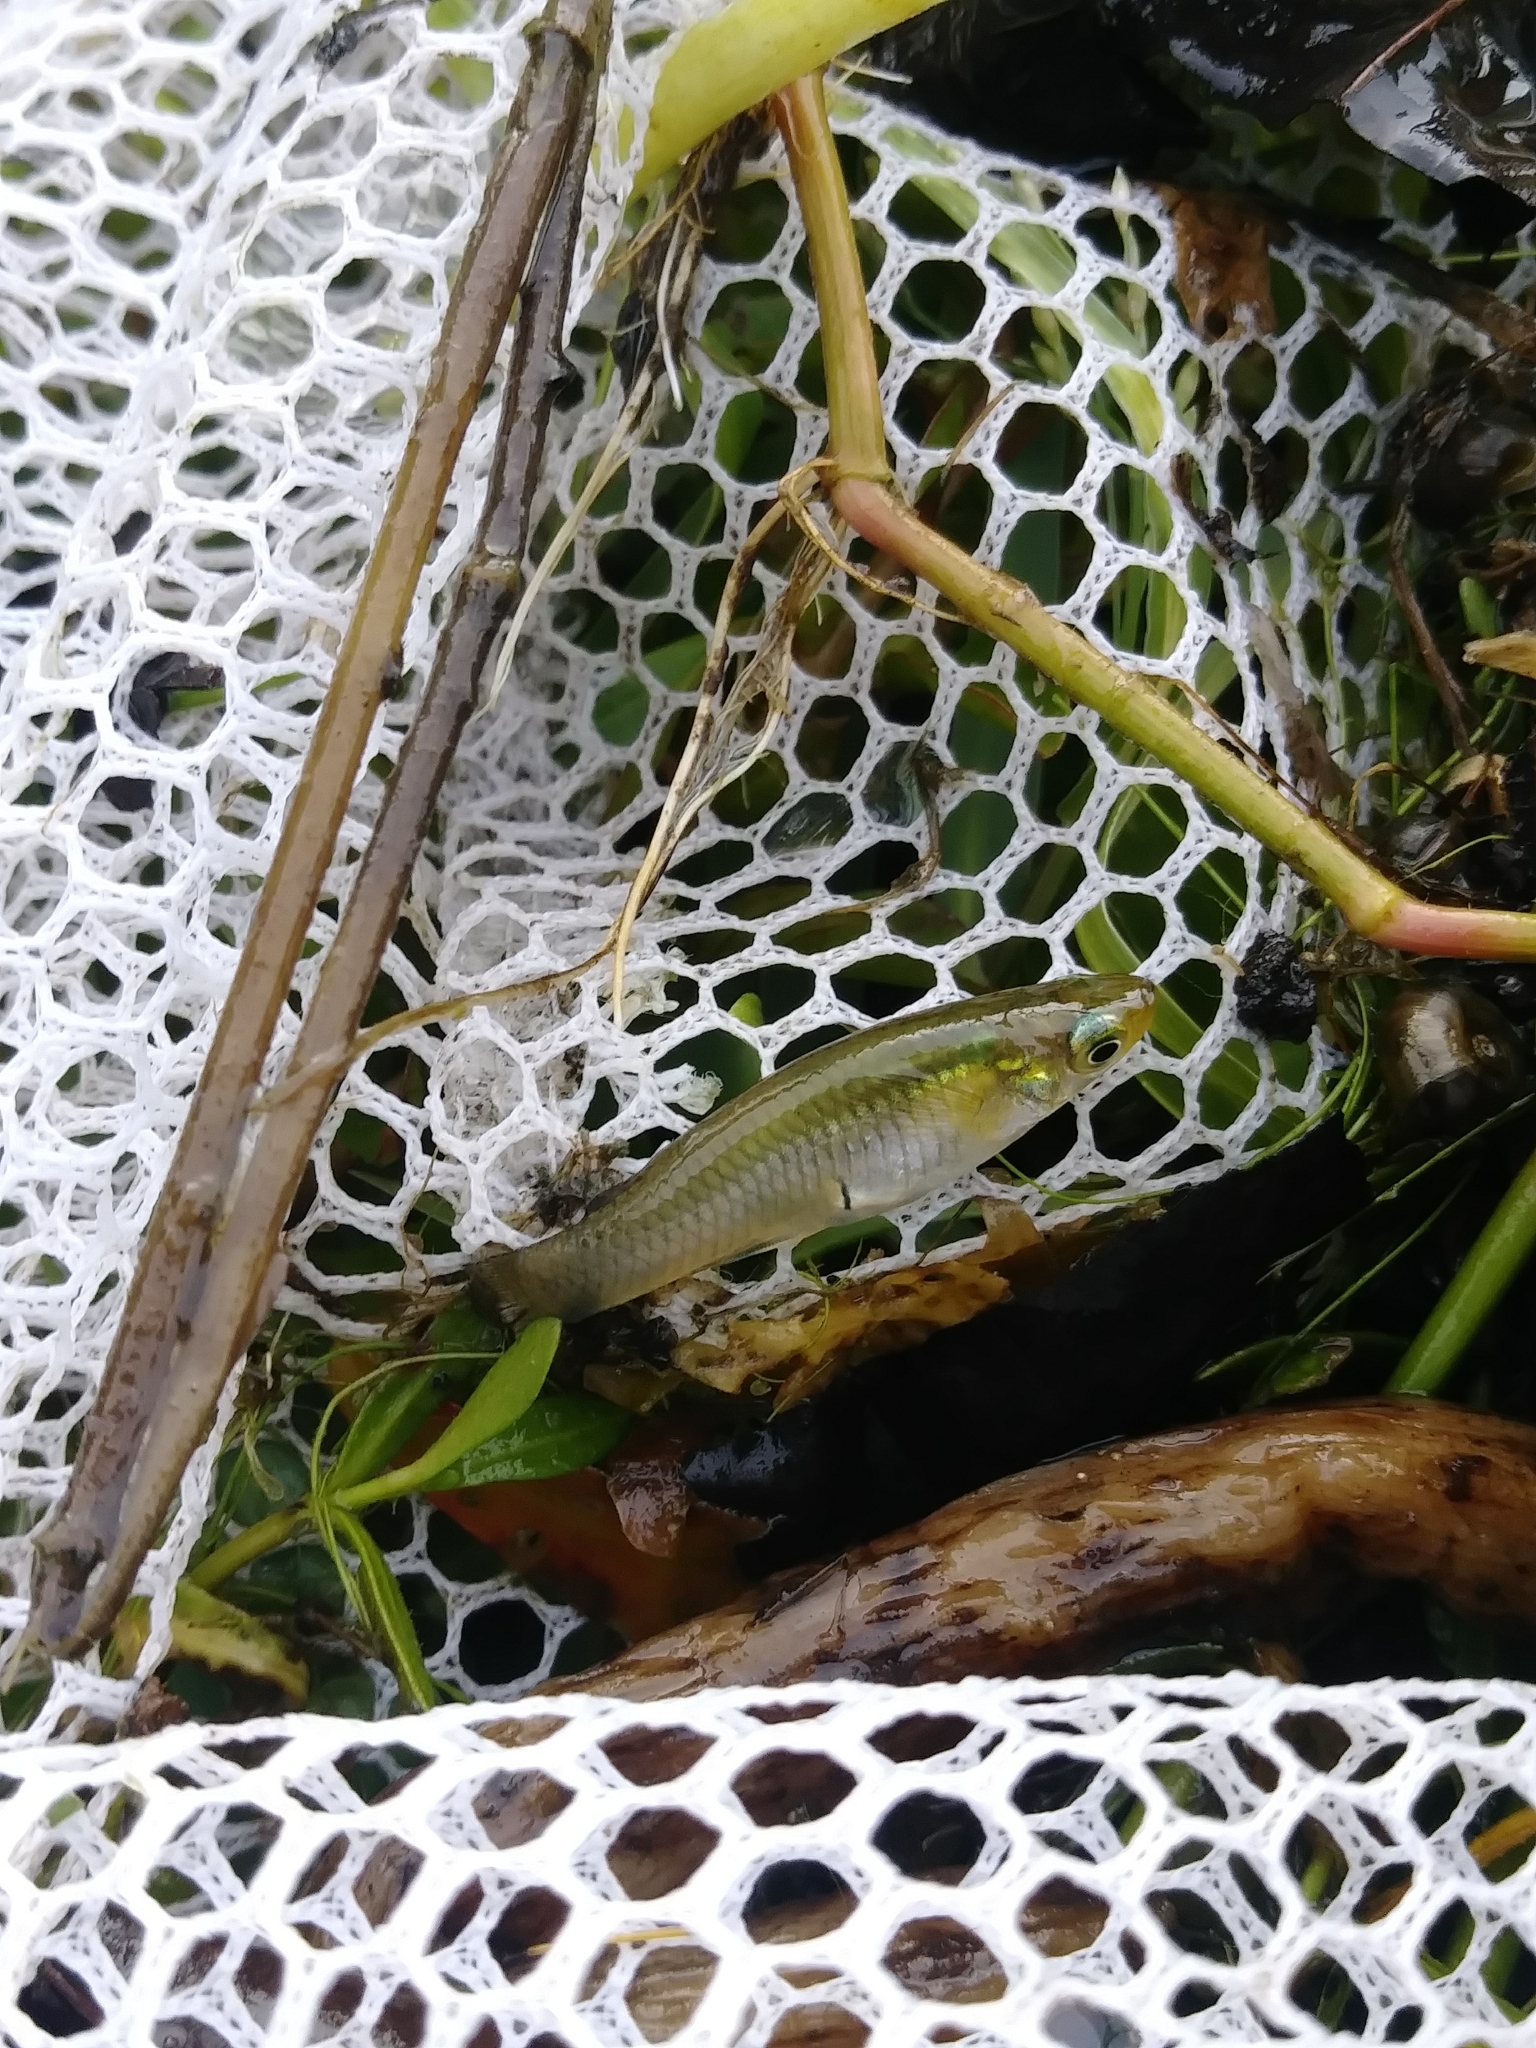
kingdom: Animalia
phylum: Chordata
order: Cyprinodontiformes
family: Poeciliidae
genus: Gambusia
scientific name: Gambusia holbrooki
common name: Eastern mosquitofish
